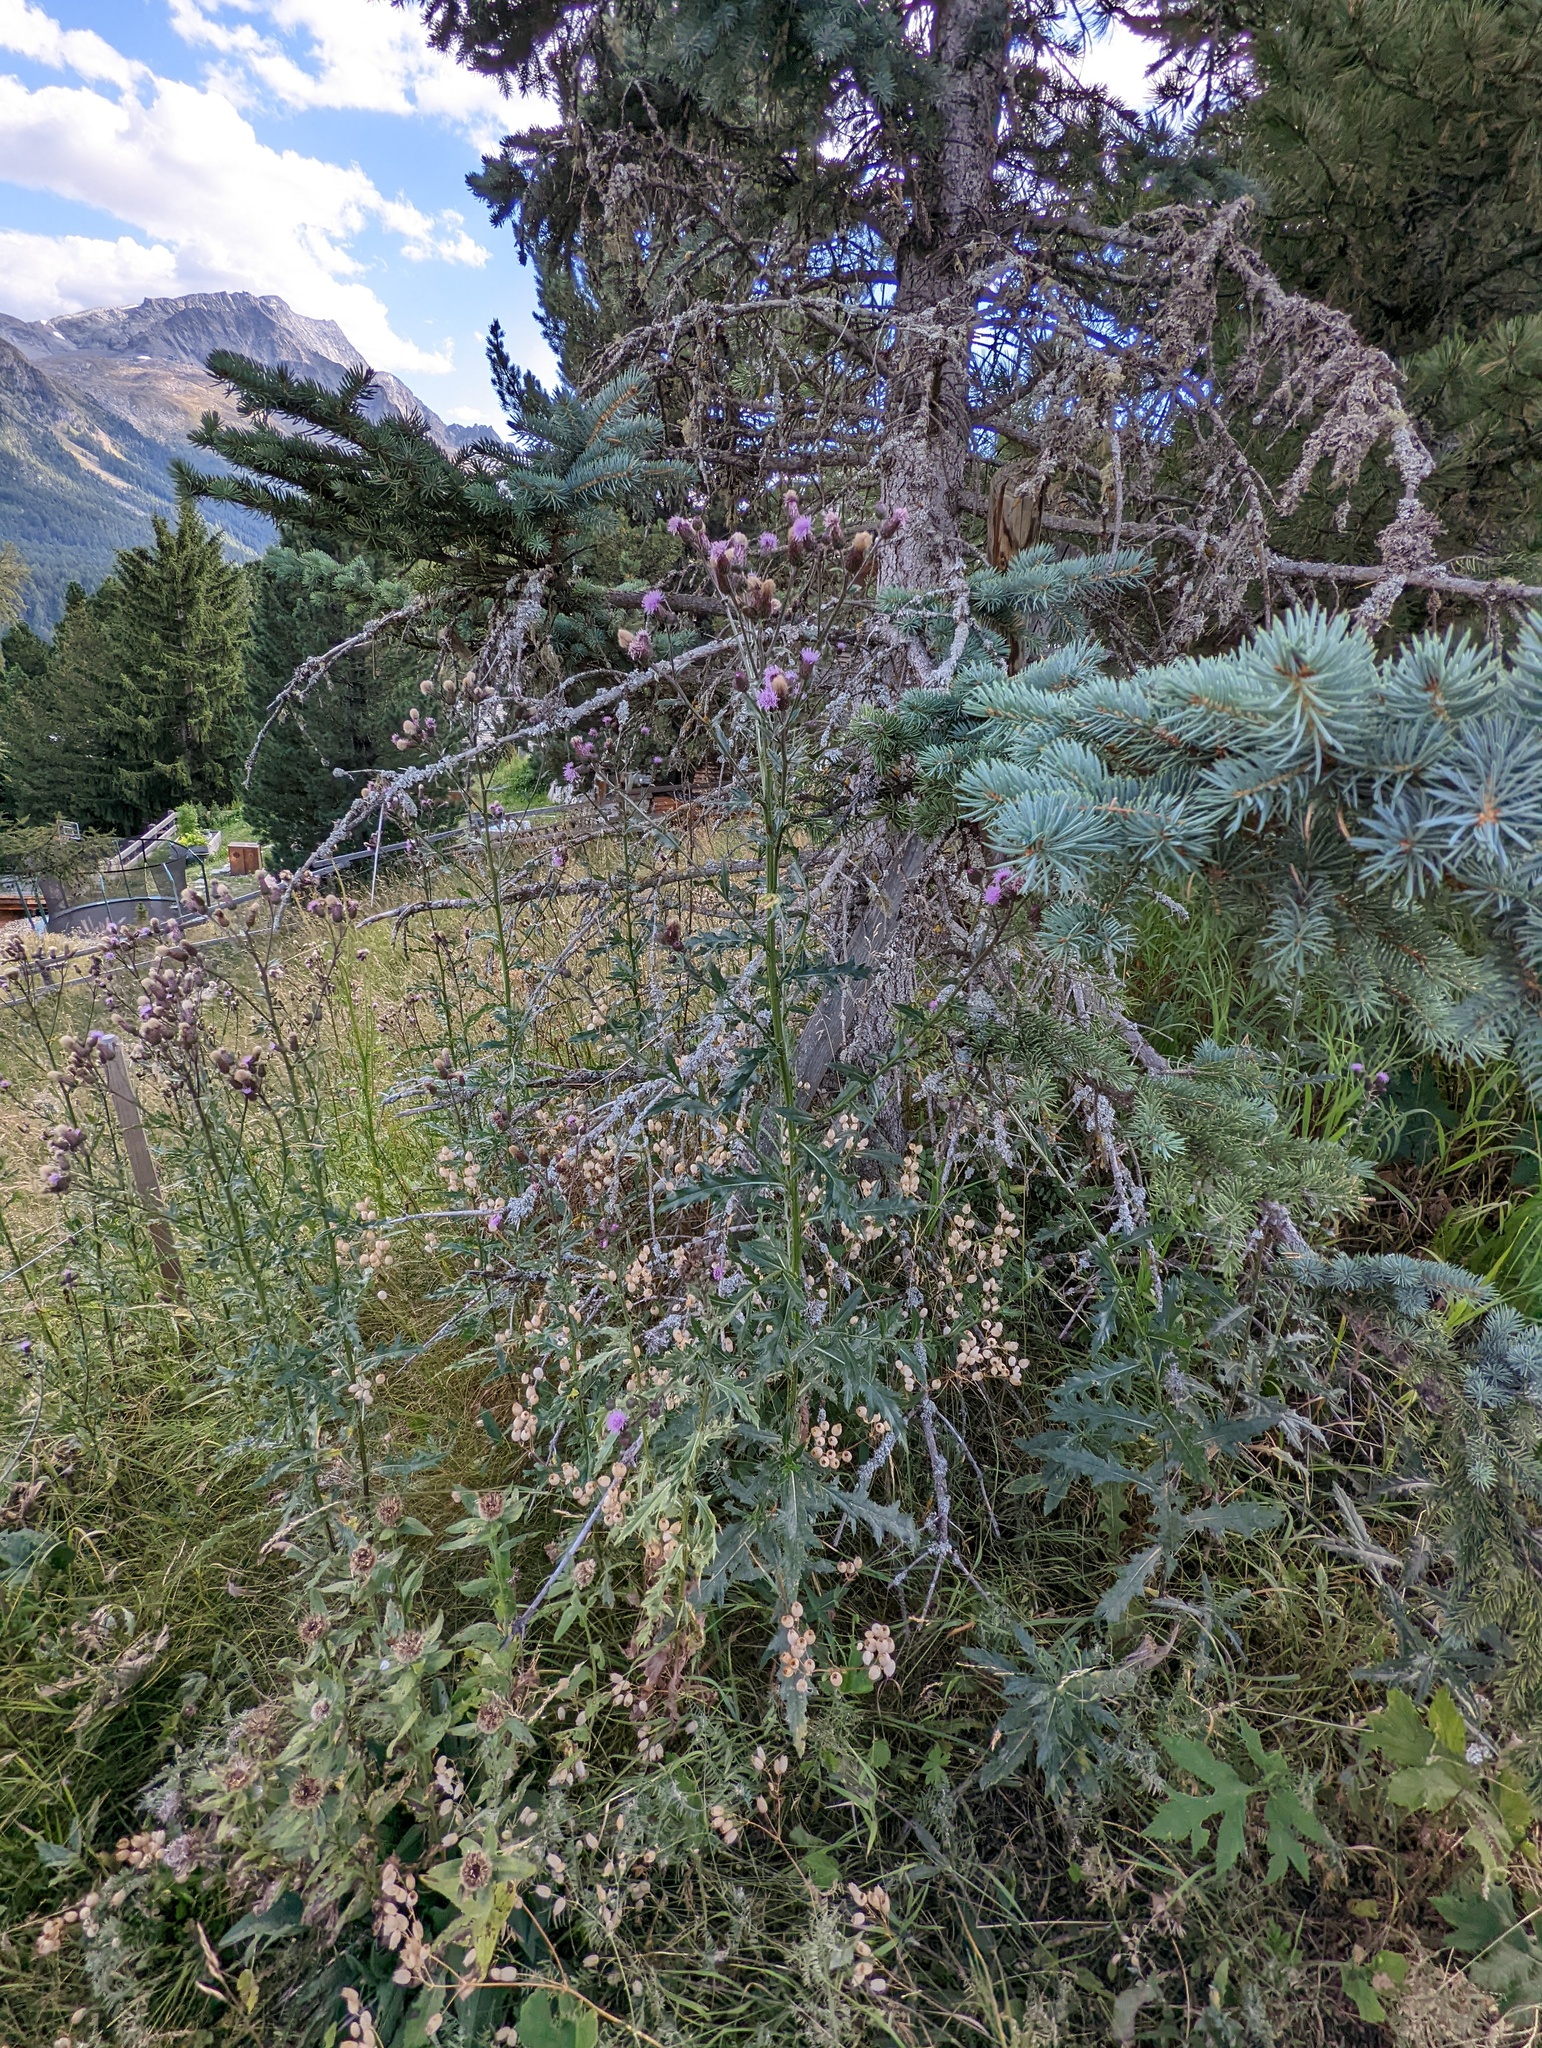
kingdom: Plantae
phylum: Tracheophyta
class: Magnoliopsida
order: Asterales
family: Asteraceae
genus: Cirsium
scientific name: Cirsium arvense
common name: Creeping thistle
